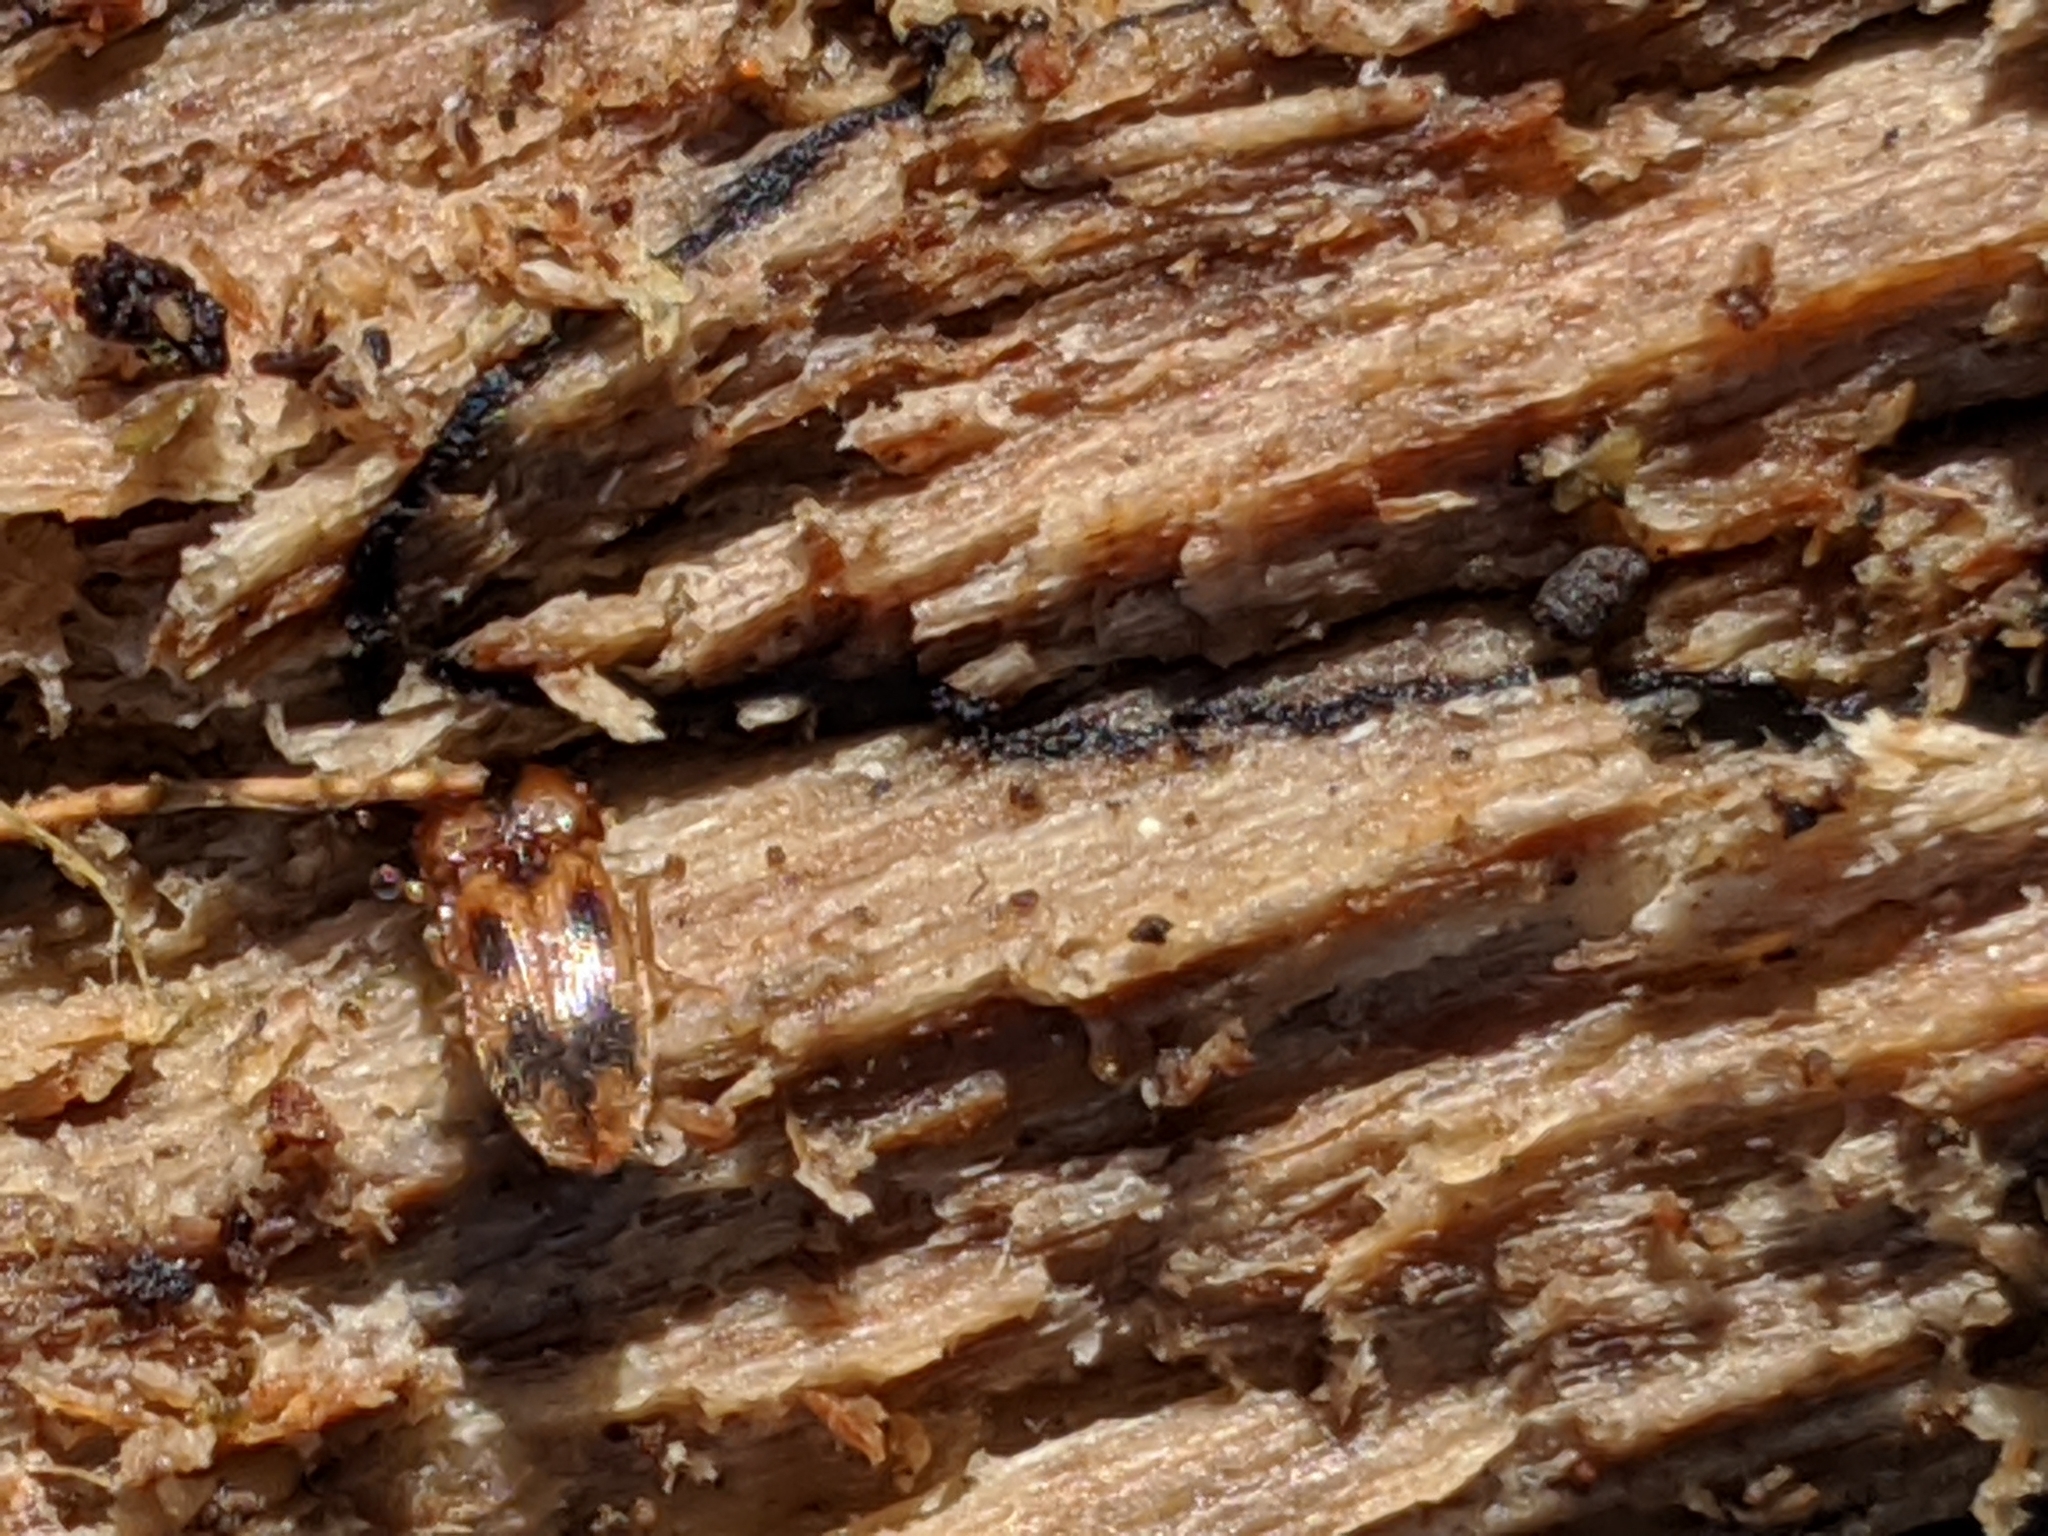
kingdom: Animalia
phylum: Arthropoda
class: Insecta
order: Coleoptera
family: Elateridae
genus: Aeolus
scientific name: Aeolus
